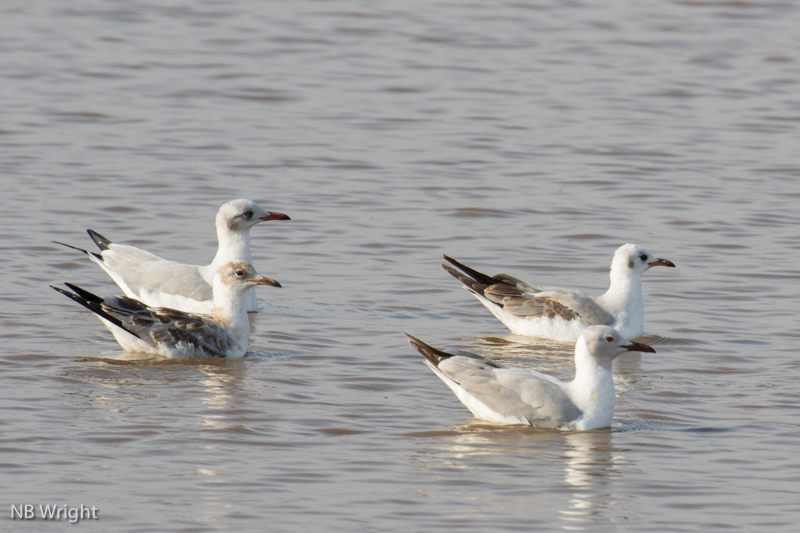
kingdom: Animalia
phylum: Chordata
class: Aves
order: Charadriiformes
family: Laridae
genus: Chroicocephalus
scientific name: Chroicocephalus cirrocephalus
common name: Grey-headed gull
